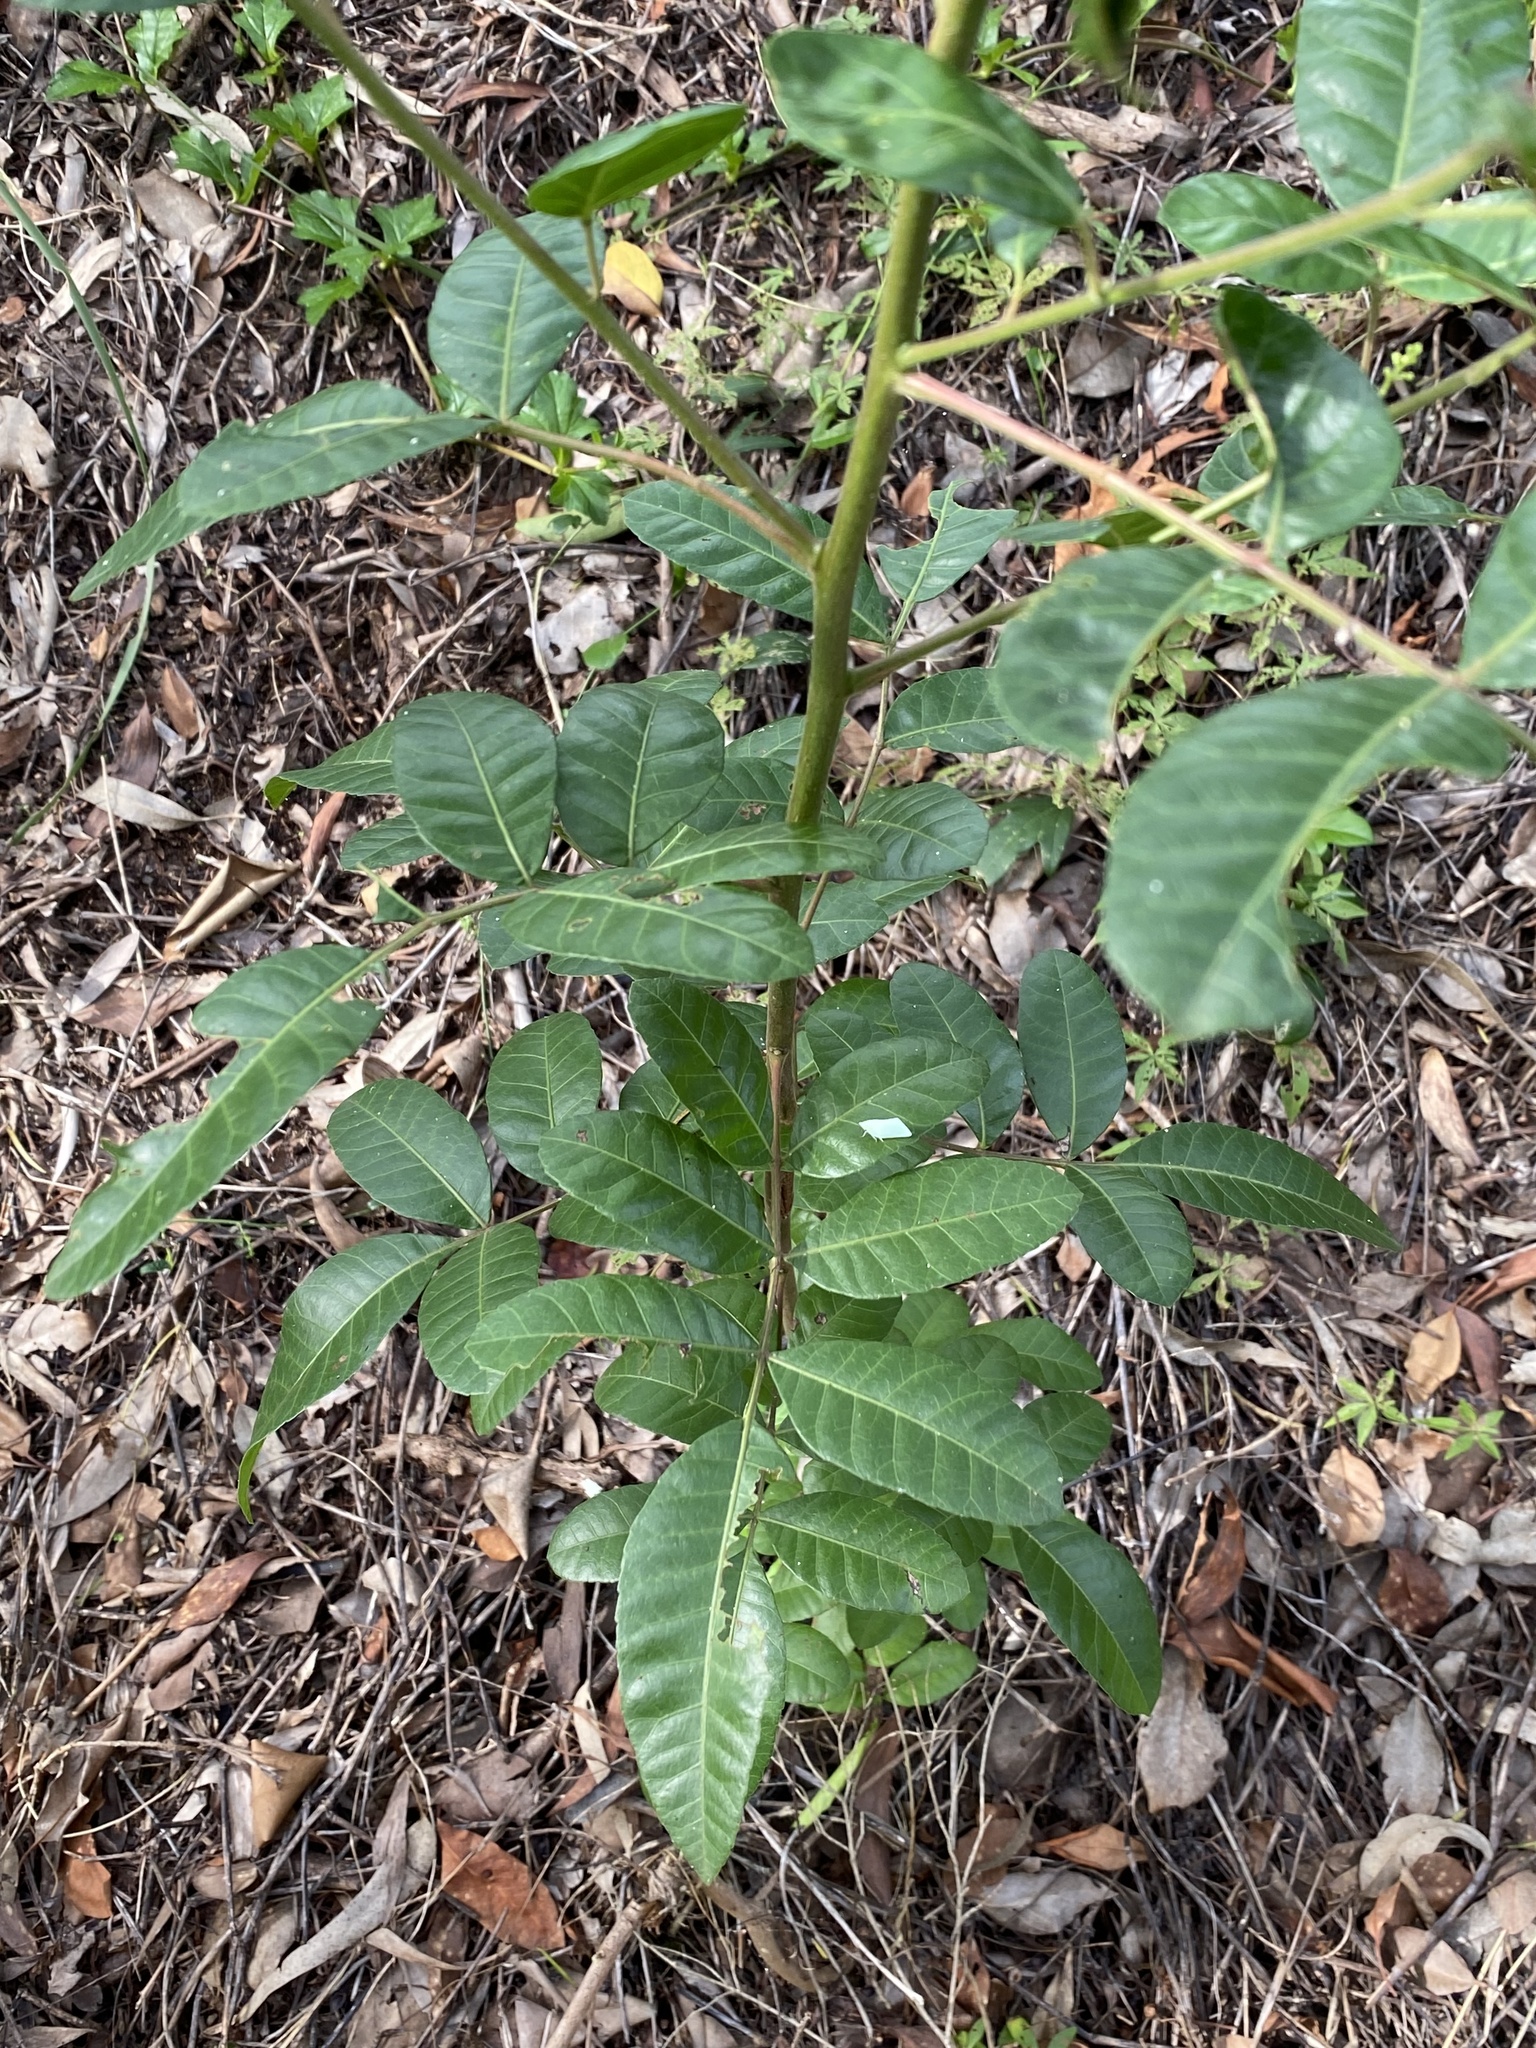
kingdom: Plantae
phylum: Tracheophyta
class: Magnoliopsida
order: Sapindales
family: Anacardiaceae
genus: Schinus
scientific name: Schinus terebinthifolia
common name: Brazilian peppertree
